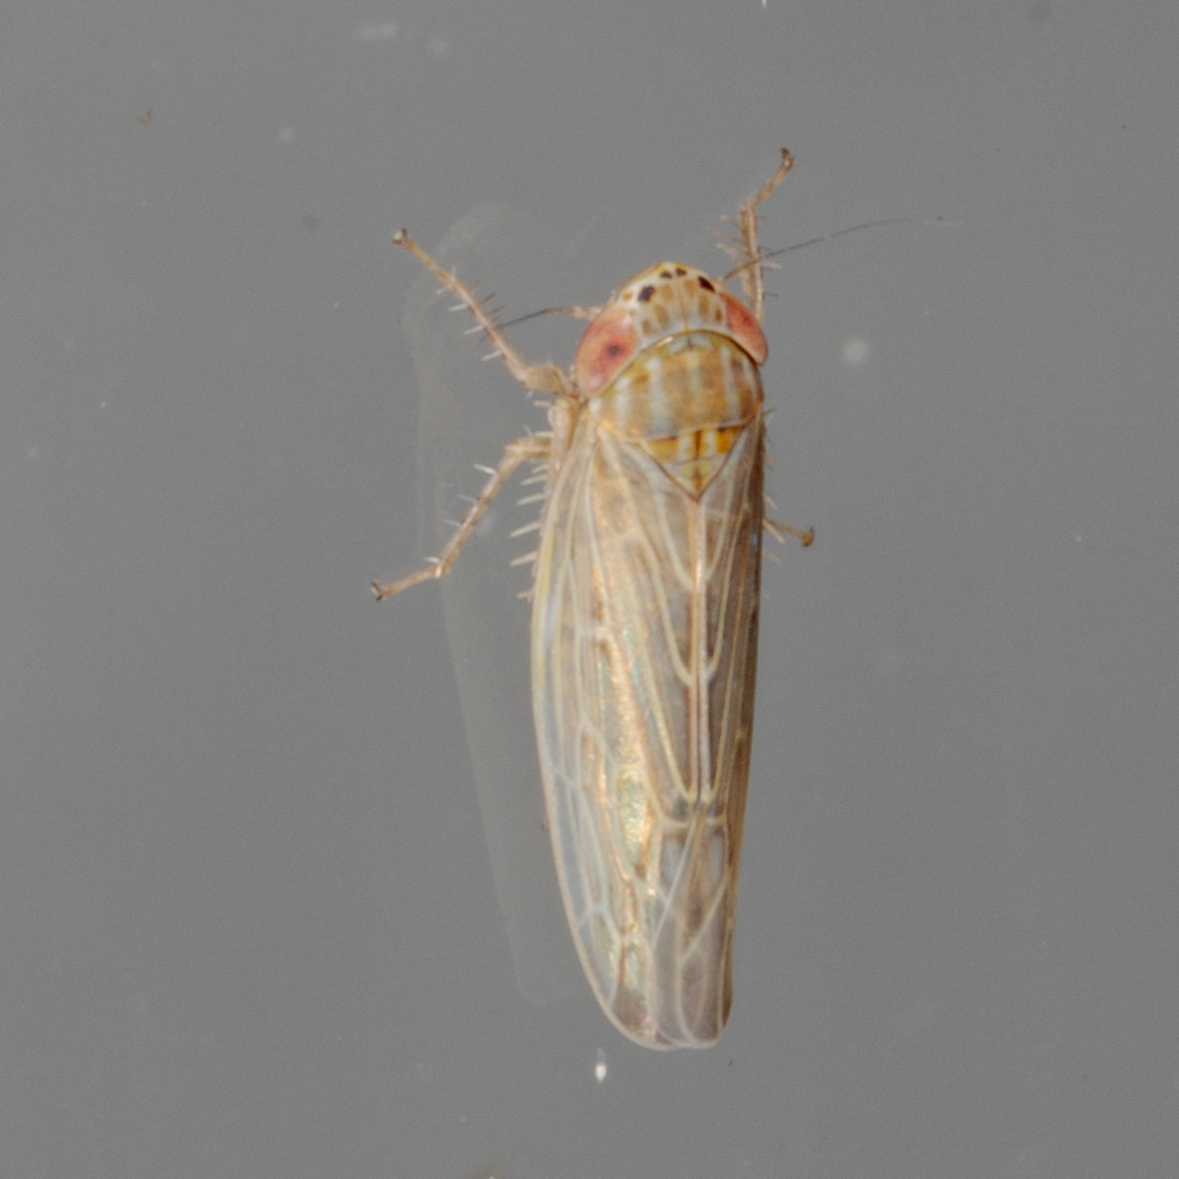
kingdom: Animalia
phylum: Arthropoda
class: Insecta
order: Hemiptera
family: Cicadellidae
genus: Graminella
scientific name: Graminella sonora
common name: Lesser lawn leafhopper
